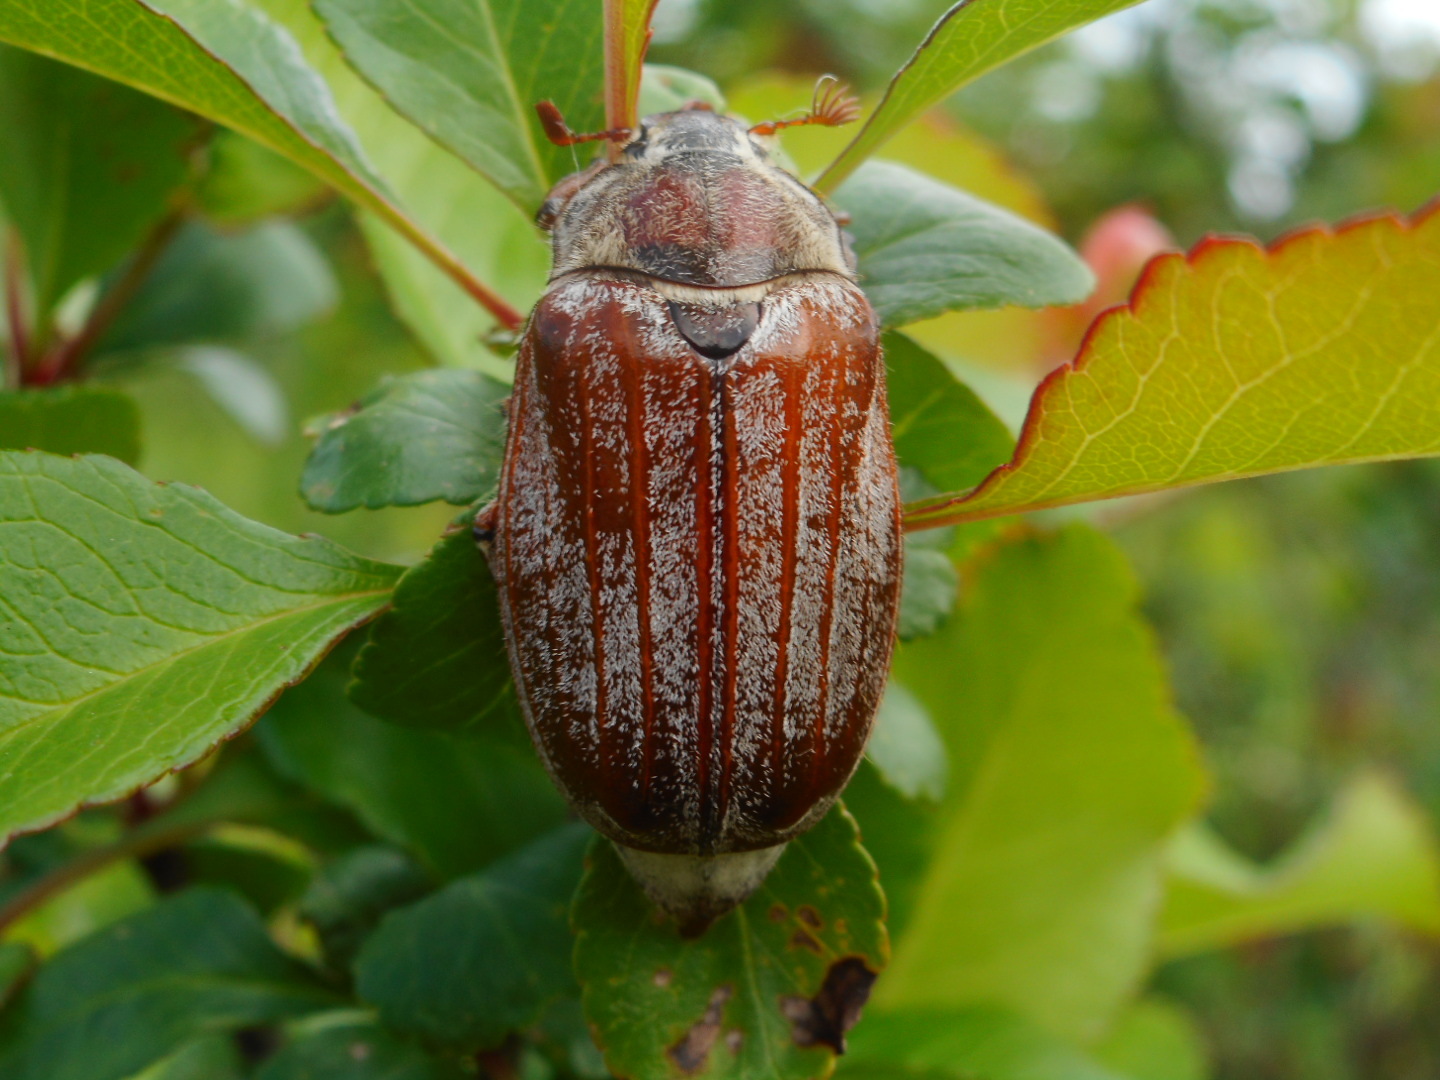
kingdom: Animalia
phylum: Arthropoda
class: Insecta
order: Coleoptera
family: Scarabaeidae
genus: Melolontha
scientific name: Melolontha hippocastani
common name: Chestnut cockchafer
